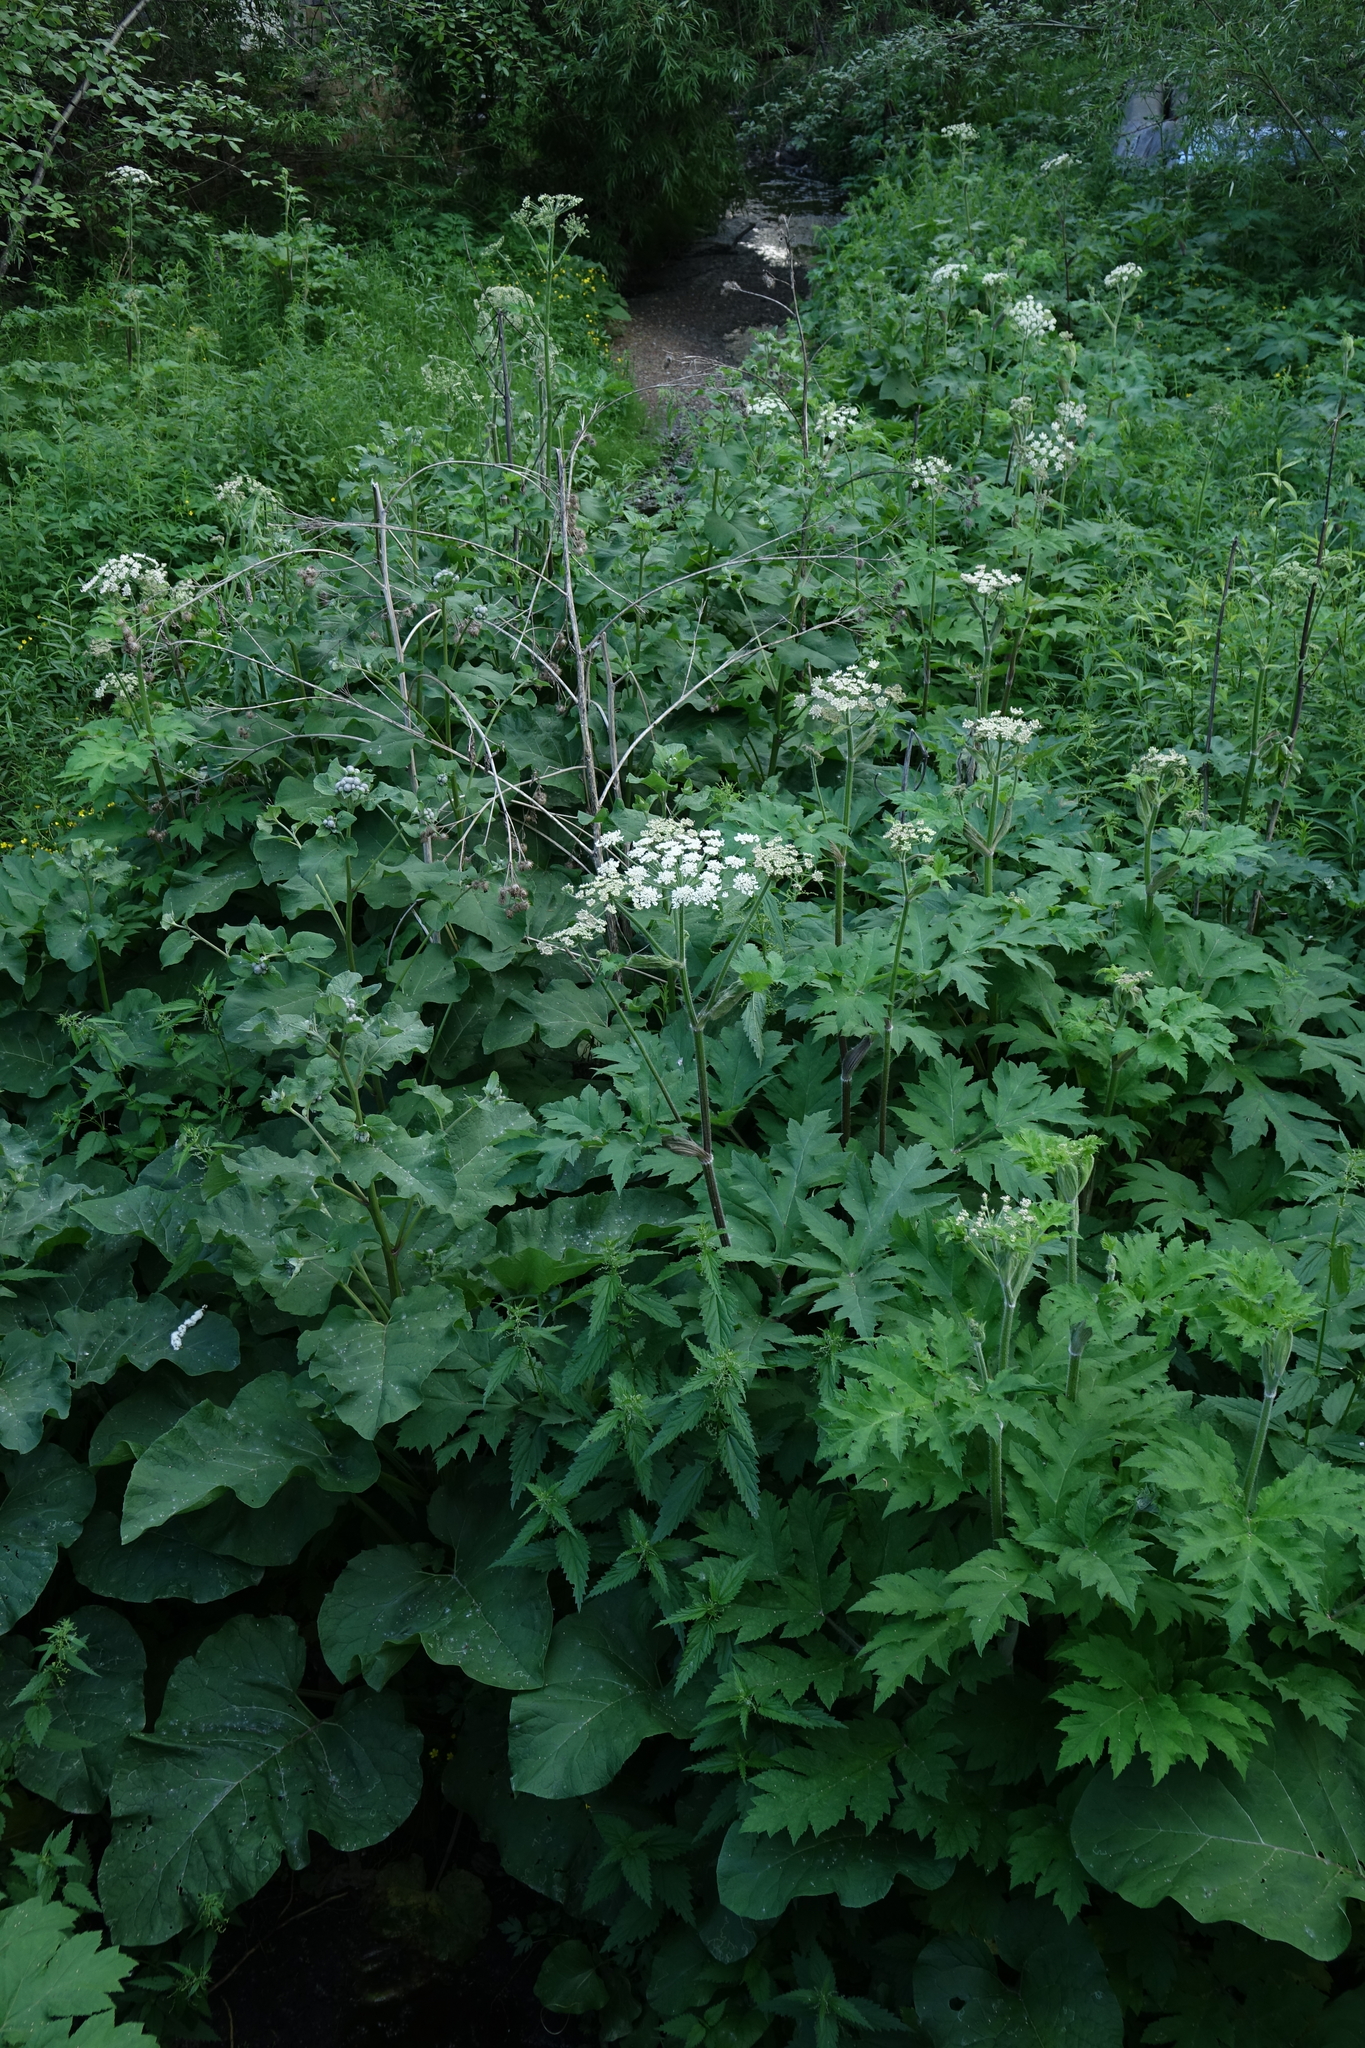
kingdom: Plantae
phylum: Tracheophyta
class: Magnoliopsida
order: Asterales
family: Asteraceae
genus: Arctium
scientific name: Arctium tomentosum
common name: Woolly burdock
